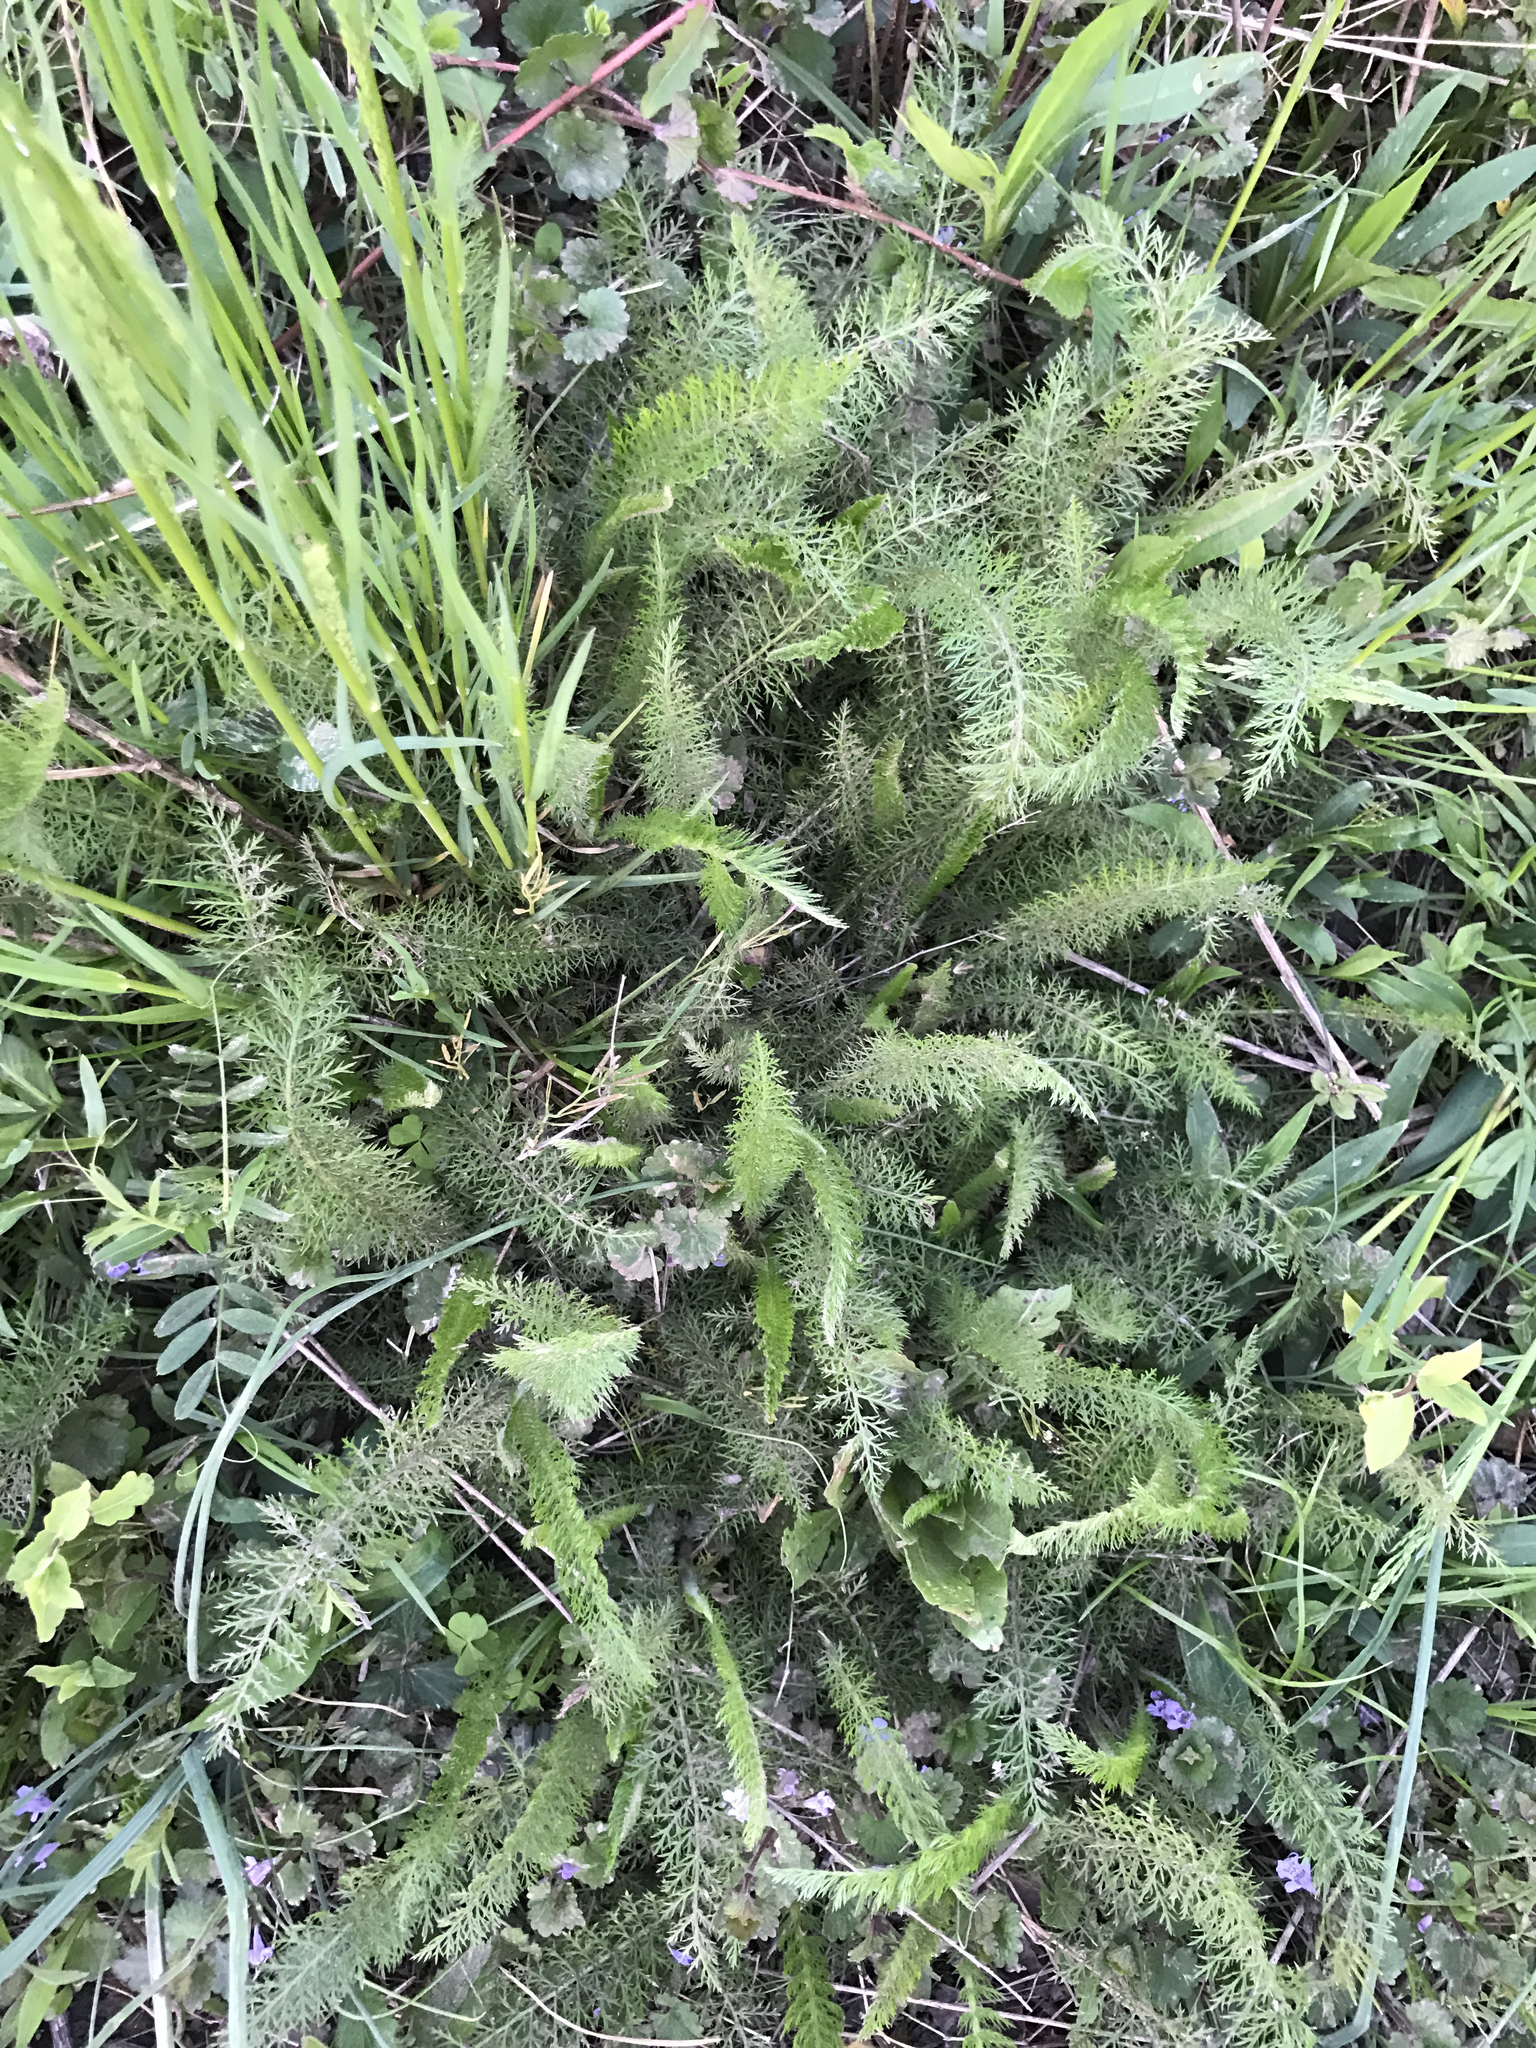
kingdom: Plantae
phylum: Tracheophyta
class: Magnoliopsida
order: Asterales
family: Asteraceae
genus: Achillea
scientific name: Achillea millefolium
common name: Yarrow
